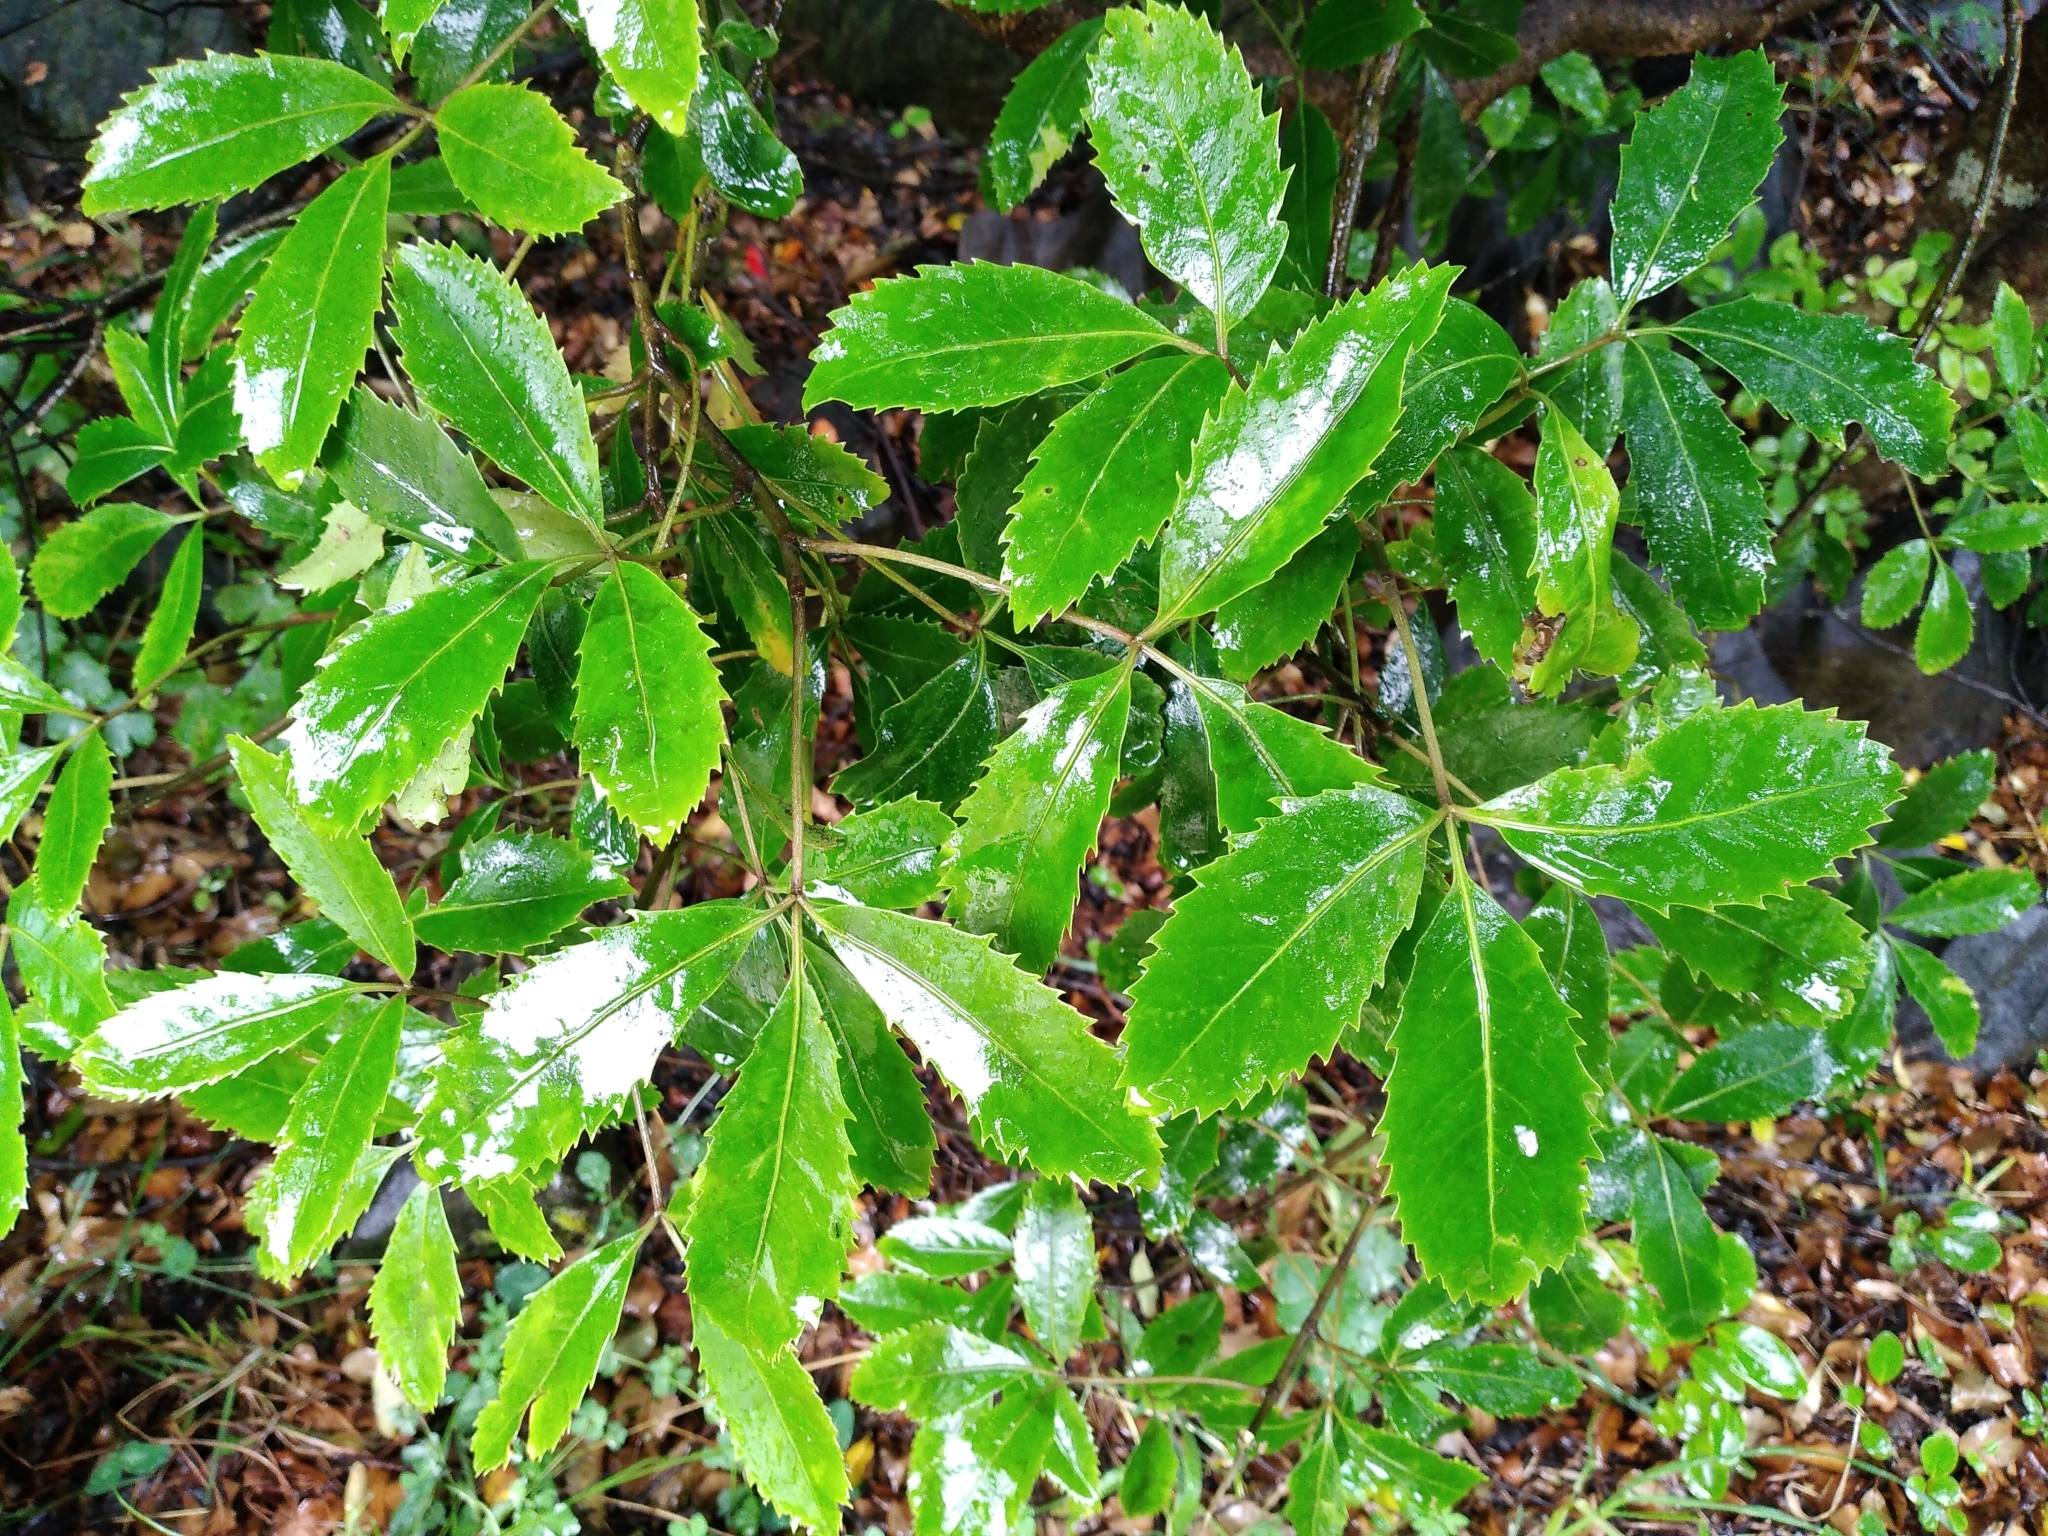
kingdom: Plantae
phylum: Tracheophyta
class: Magnoliopsida
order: Apiales
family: Araliaceae
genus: Neopanax
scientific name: Neopanax macintyrei
